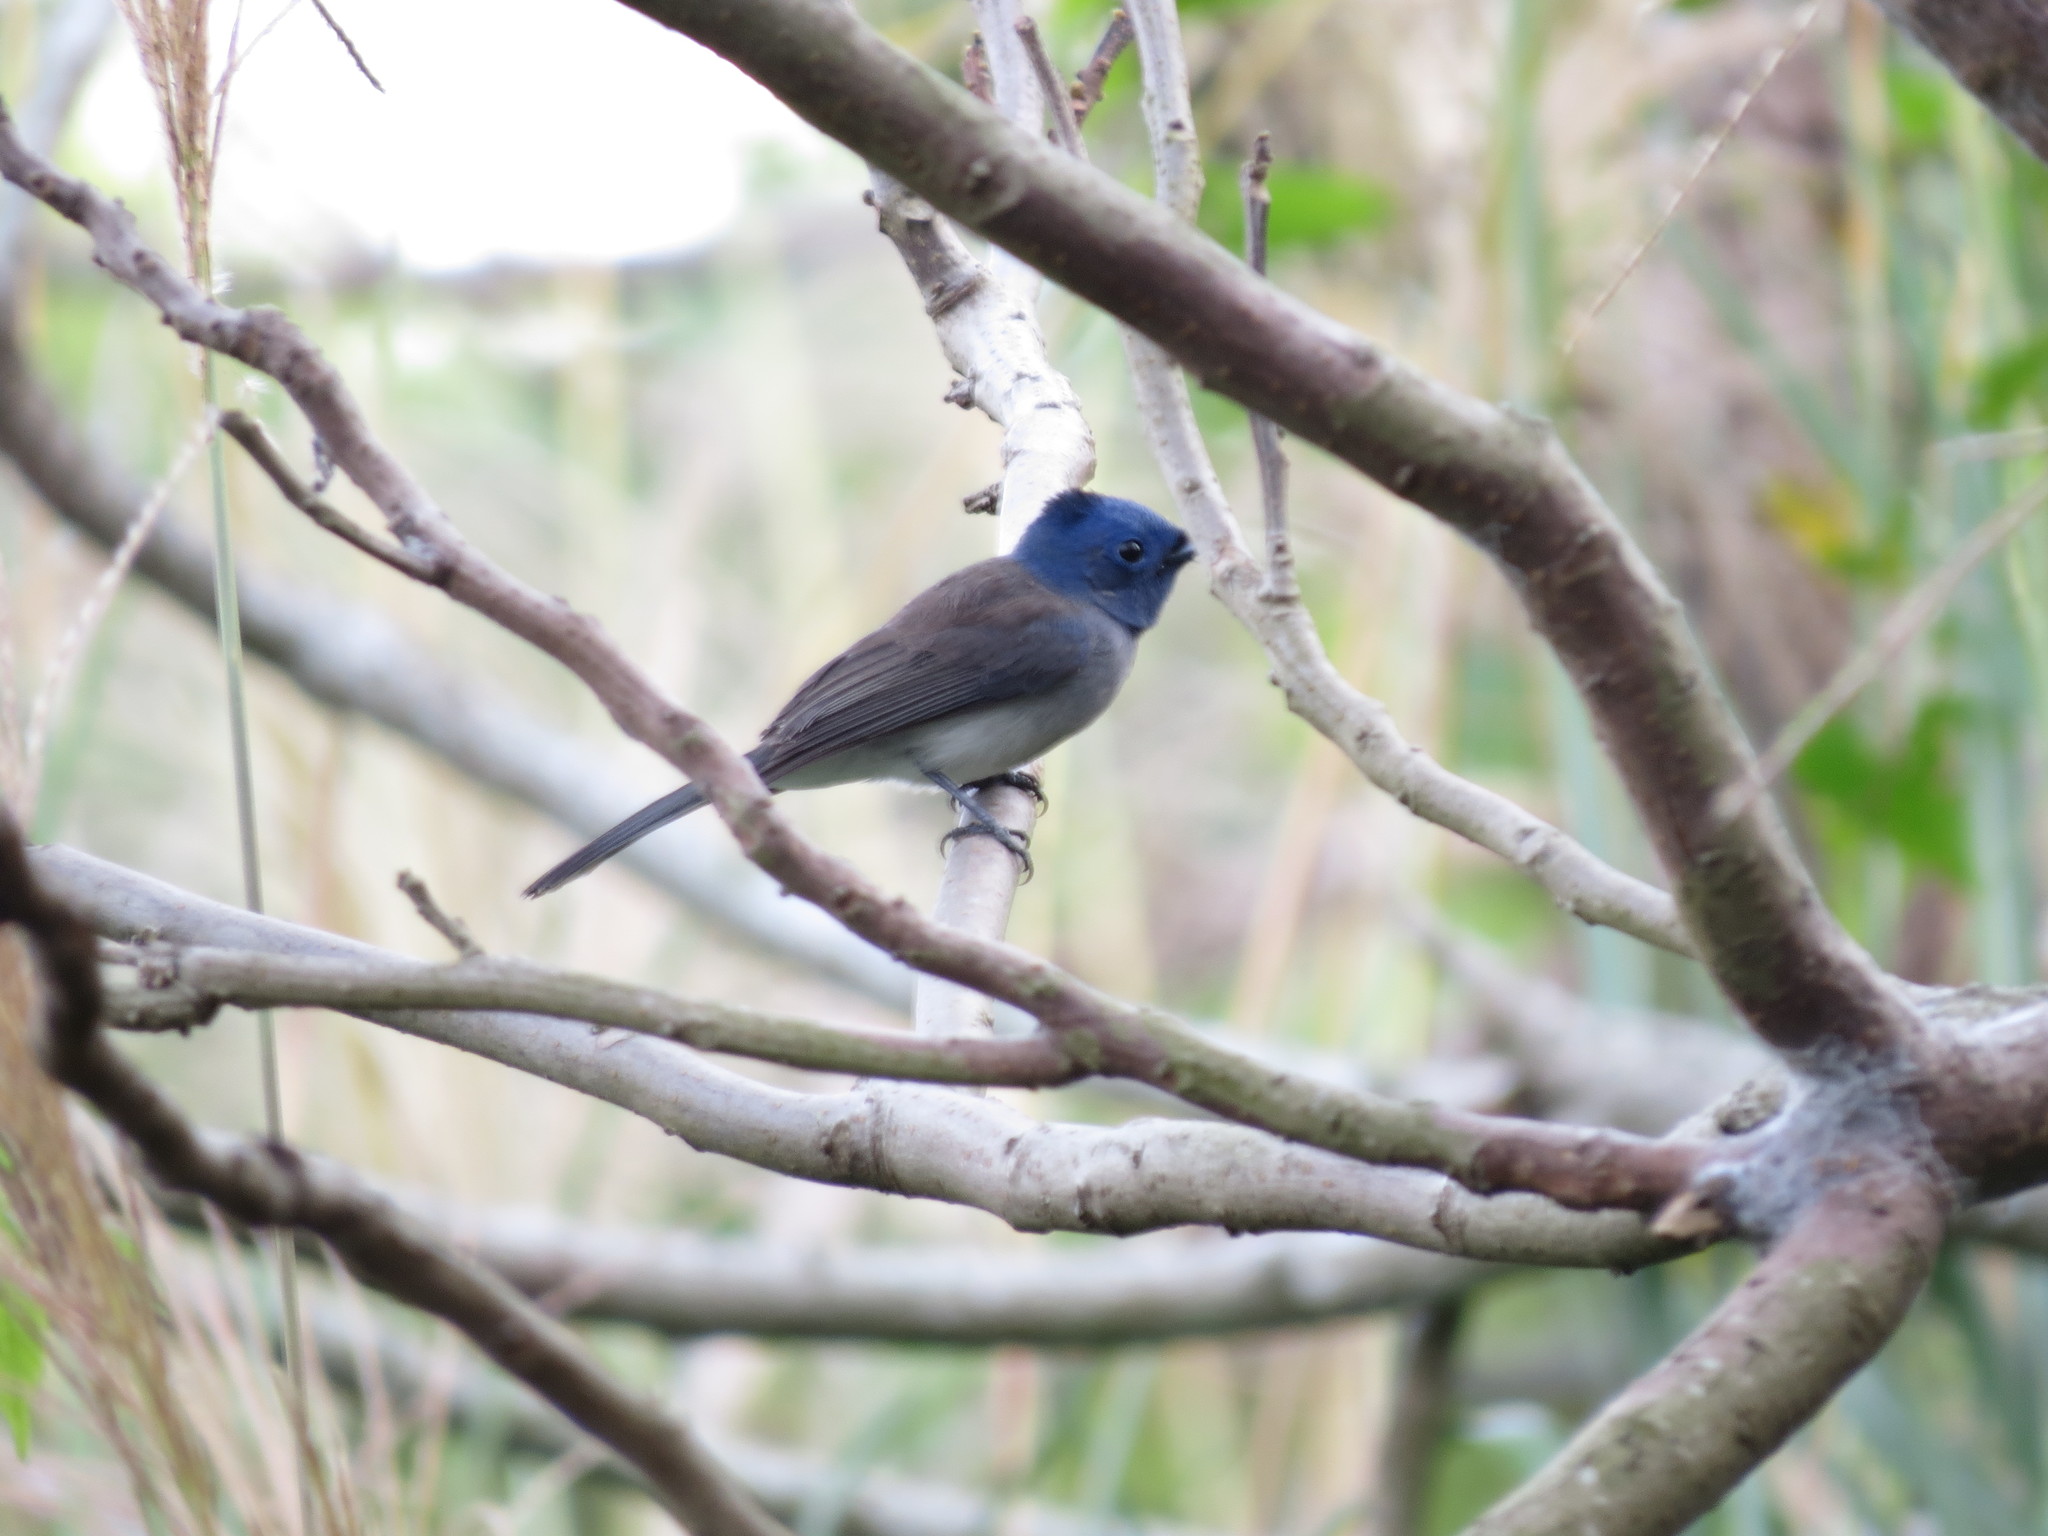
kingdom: Animalia
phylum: Chordata
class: Aves
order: Passeriformes
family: Monarchidae
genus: Hypothymis
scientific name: Hypothymis azurea
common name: Black-naped monarch
